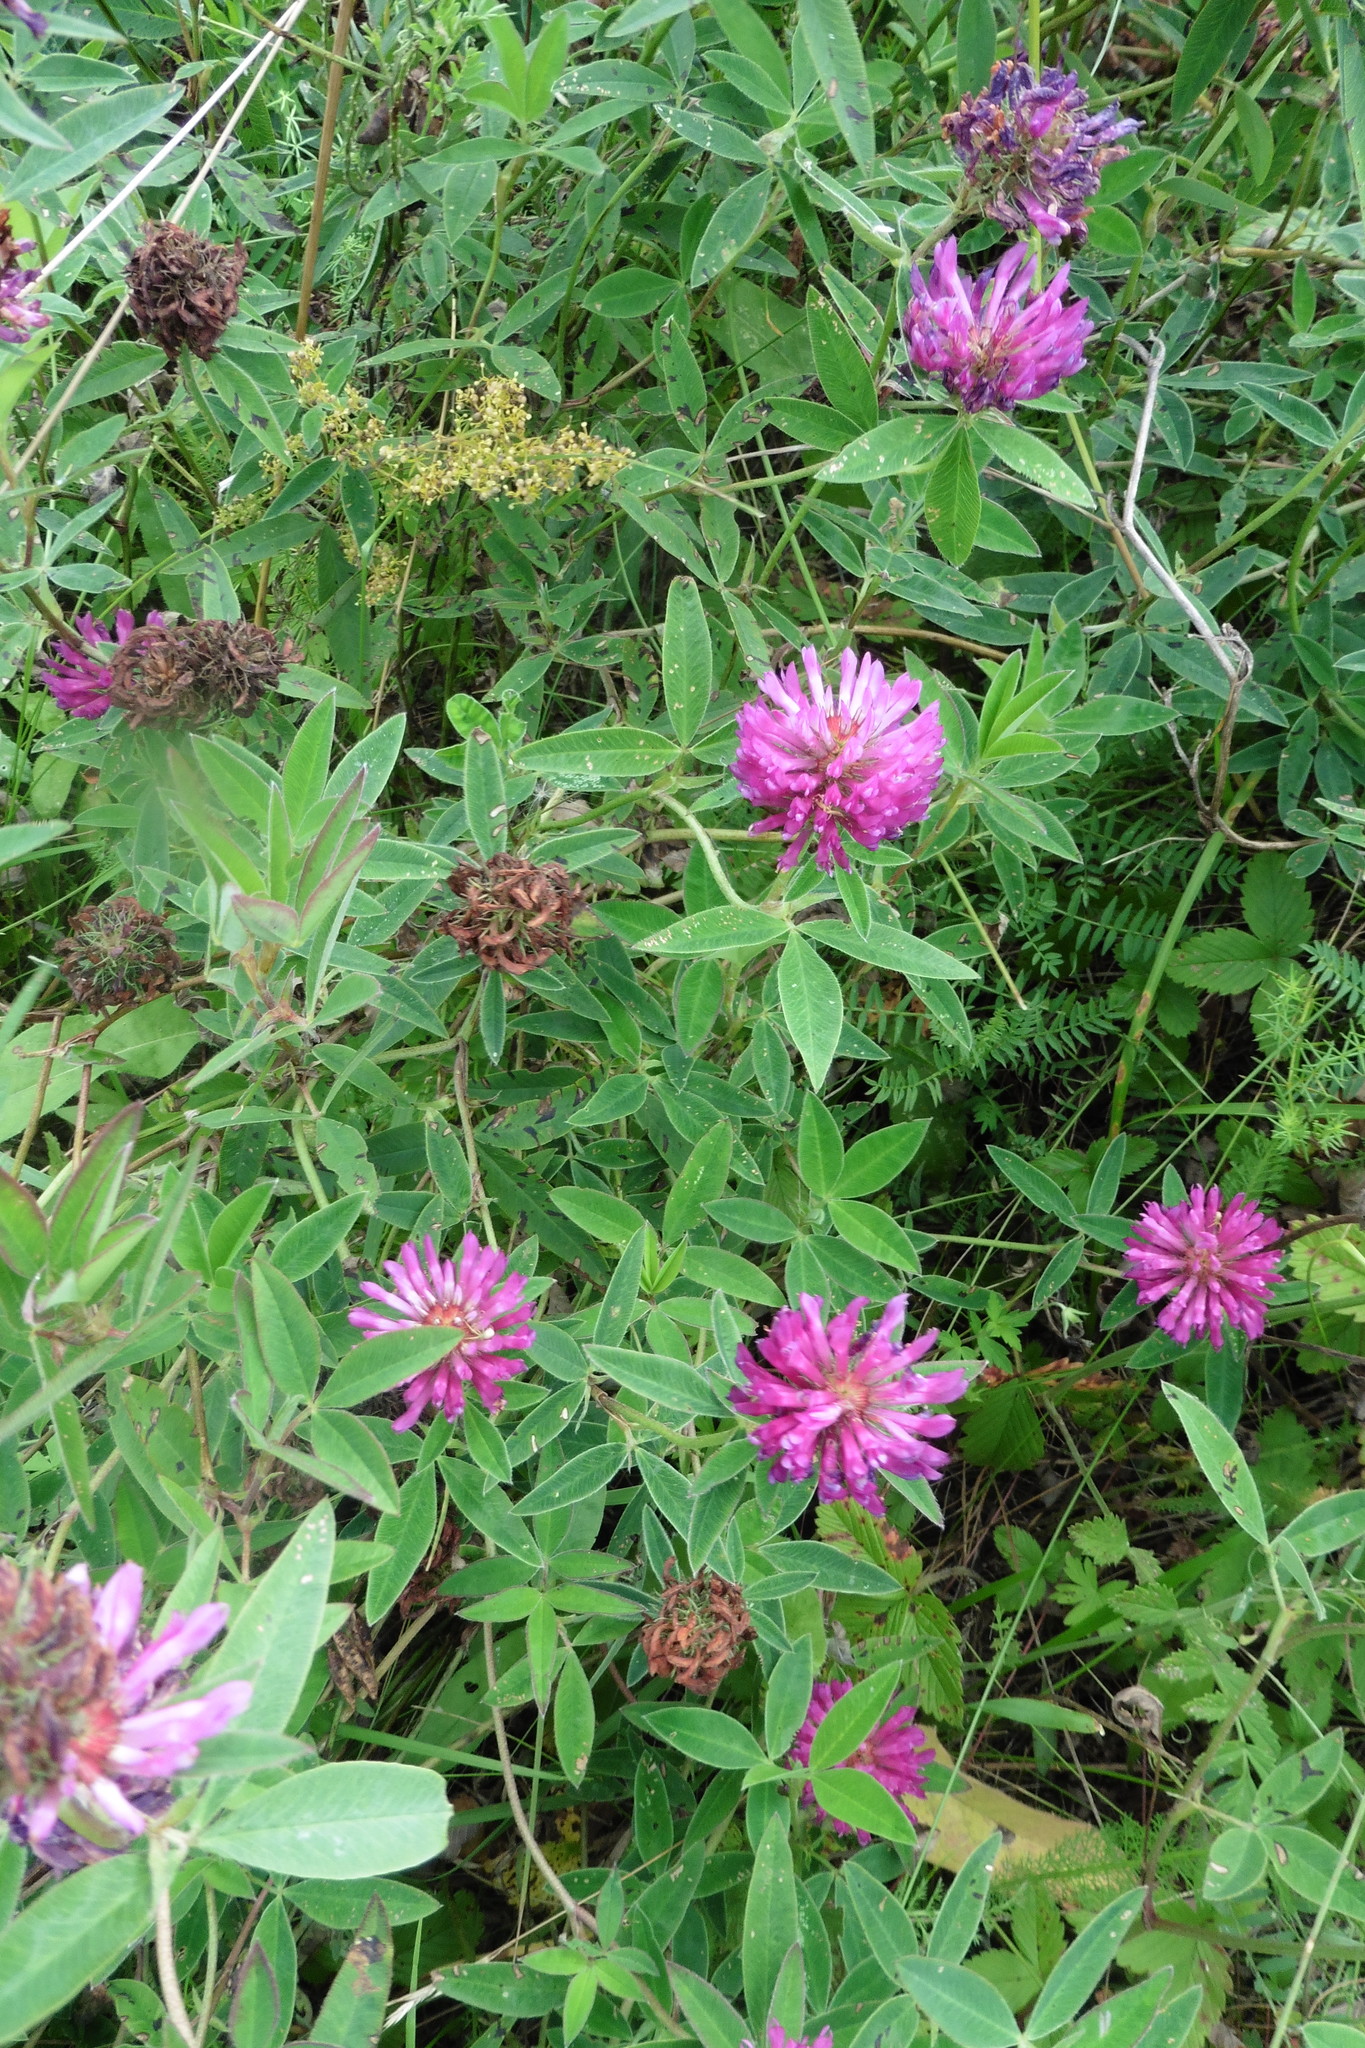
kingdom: Plantae
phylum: Tracheophyta
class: Magnoliopsida
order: Fabales
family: Fabaceae
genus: Trifolium
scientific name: Trifolium medium
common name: Zigzag clover
